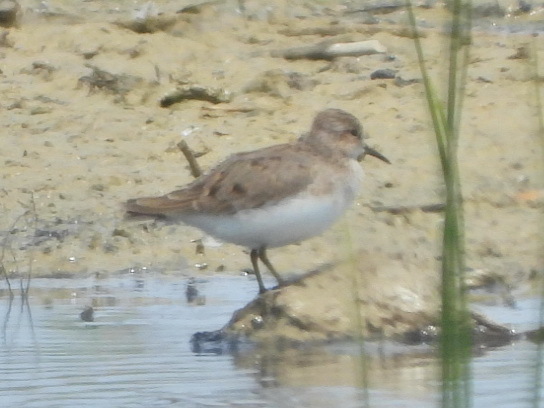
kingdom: Animalia
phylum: Chordata
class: Aves
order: Charadriiformes
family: Scolopacidae
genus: Calidris
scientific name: Calidris temminckii
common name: Temminck's stint
